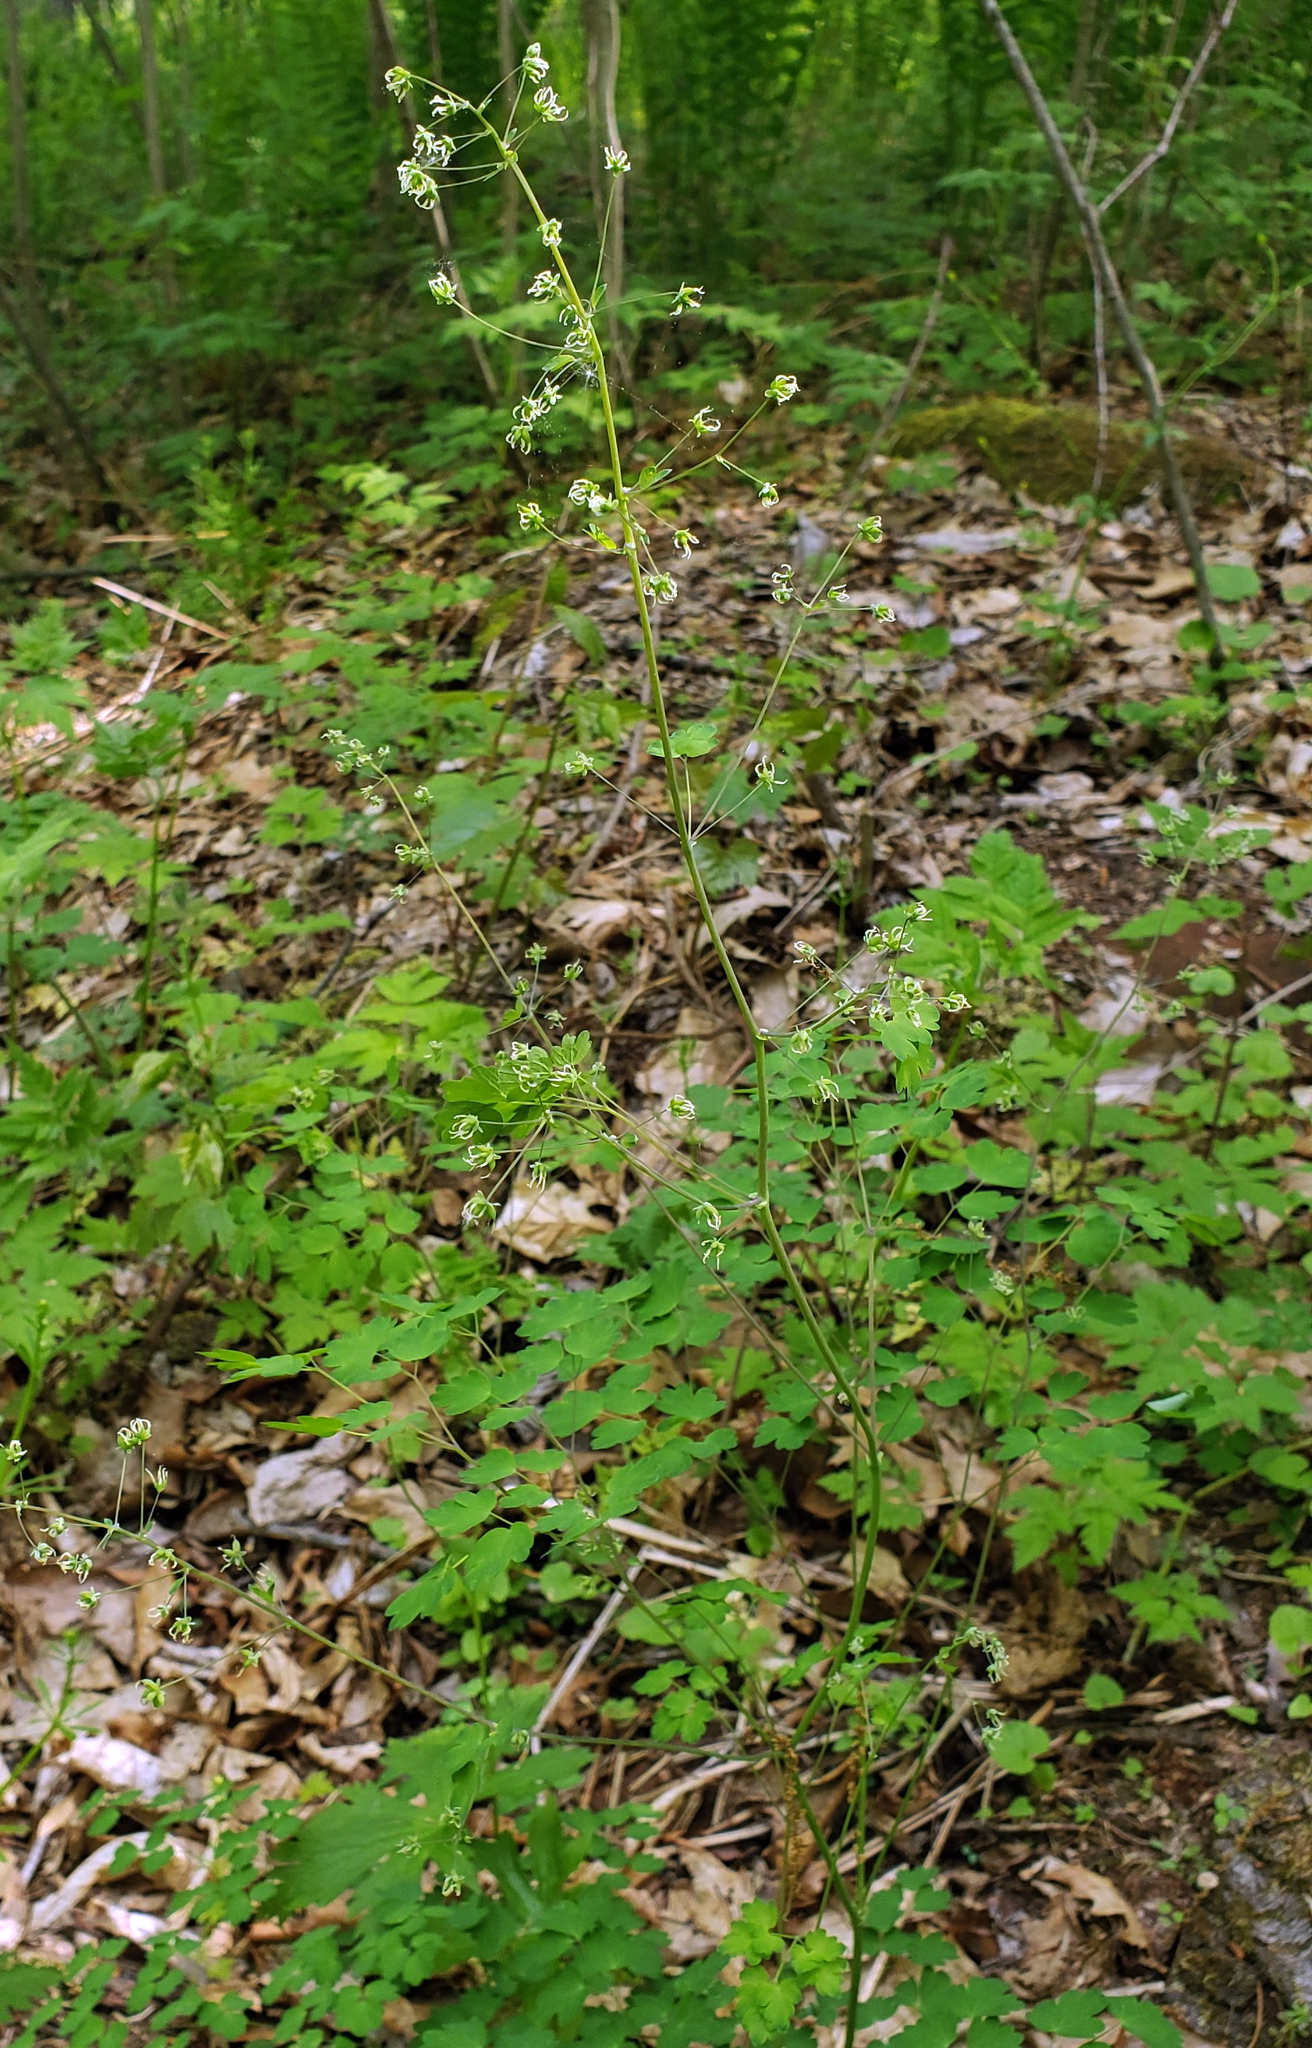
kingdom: Plantae
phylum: Tracheophyta
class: Magnoliopsida
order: Ranunculales
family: Ranunculaceae
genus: Thalictrum
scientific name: Thalictrum dioicum
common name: Early meadow-rue
